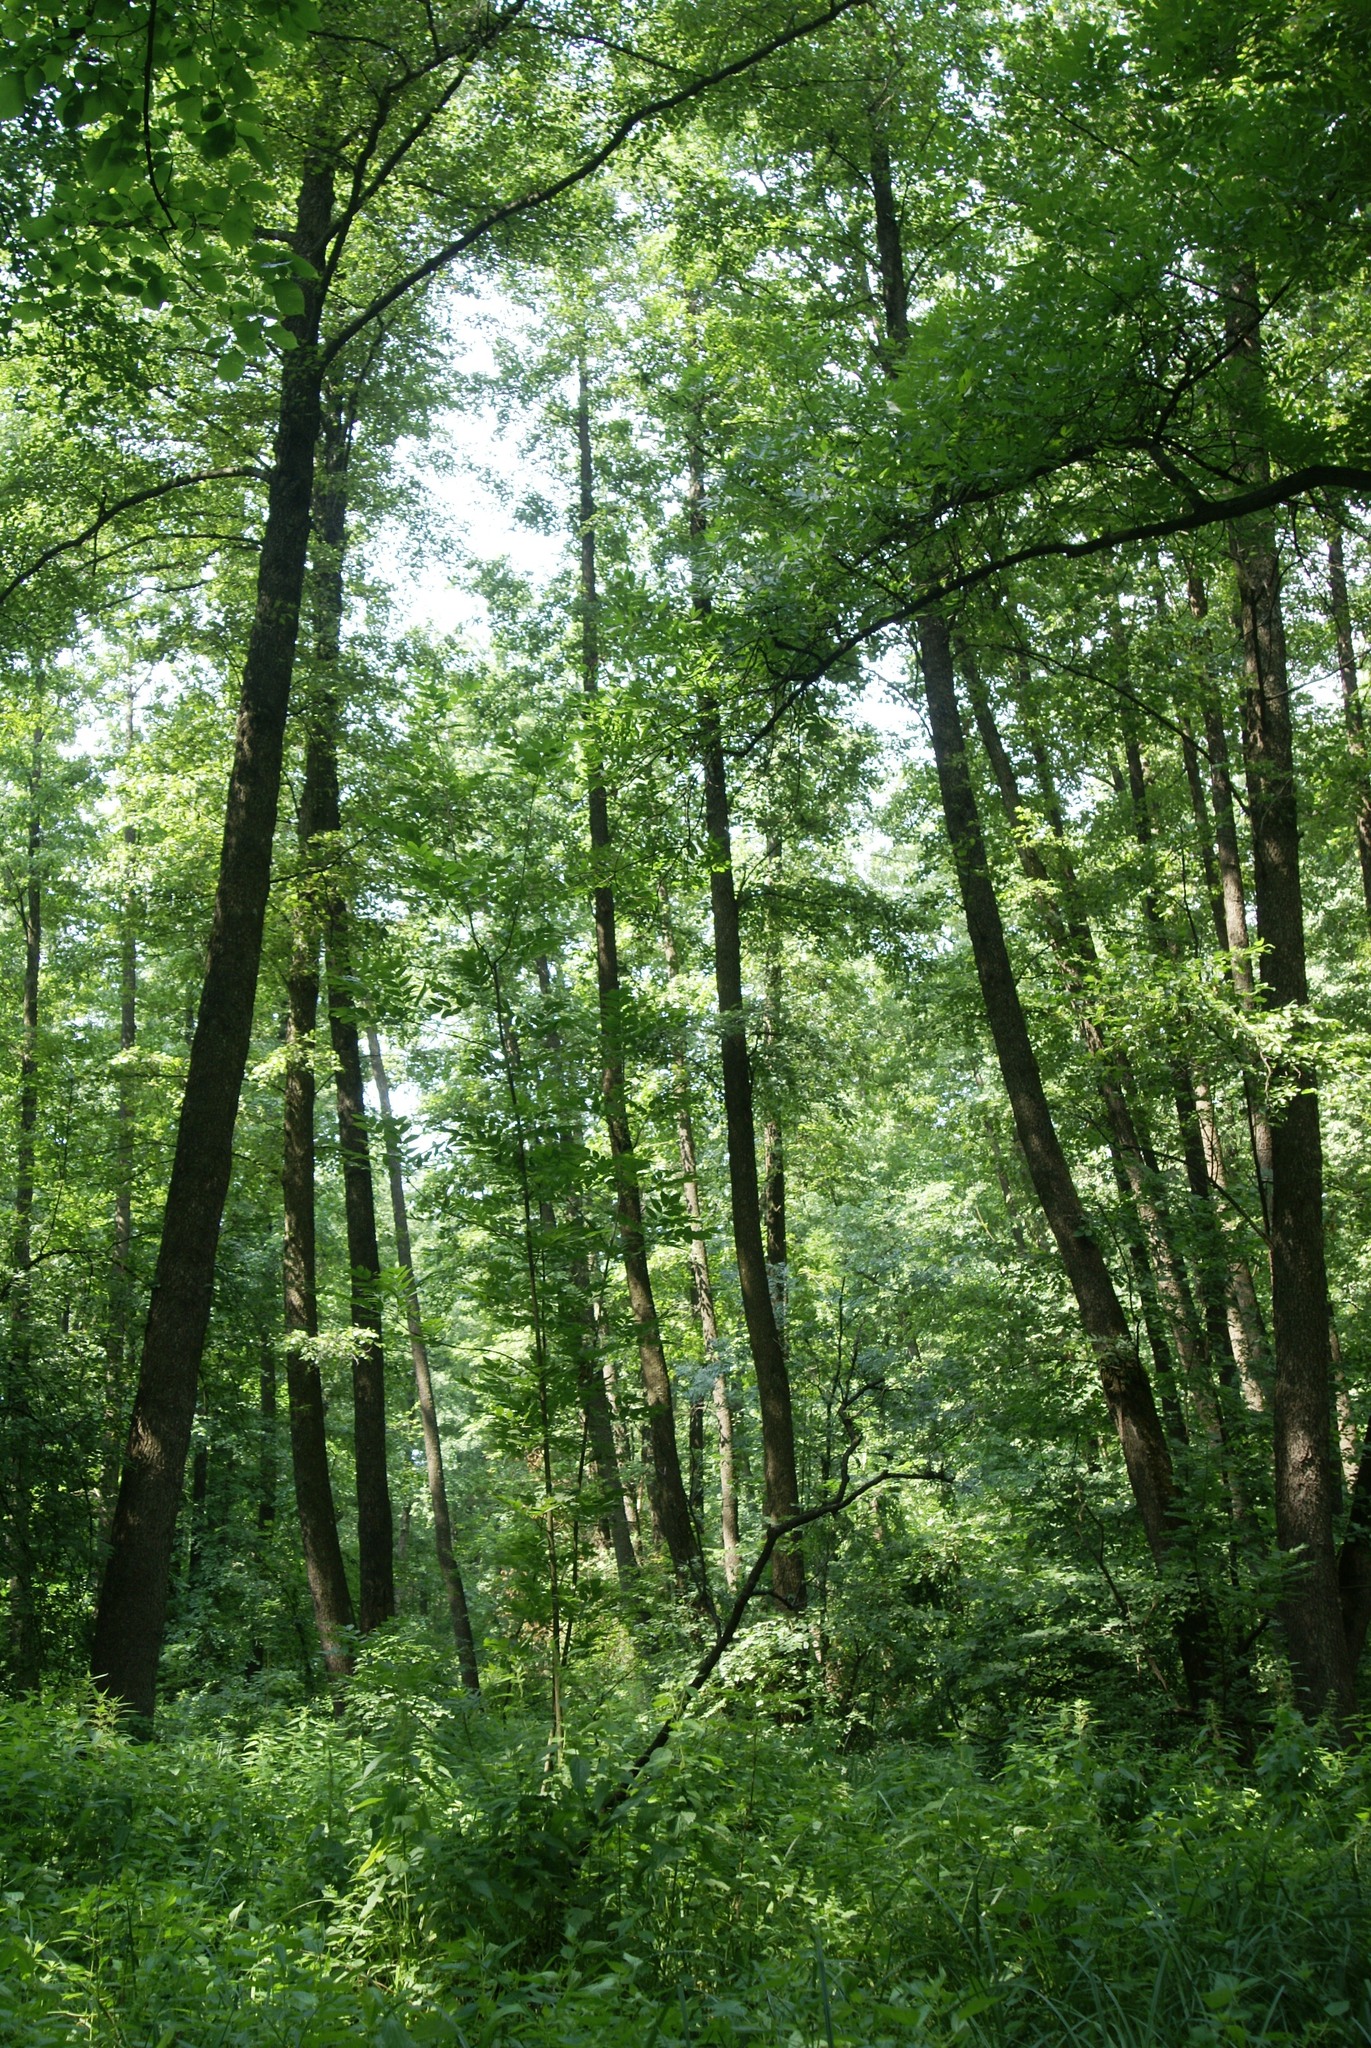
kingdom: Plantae
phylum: Tracheophyta
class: Magnoliopsida
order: Fagales
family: Betulaceae
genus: Alnus
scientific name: Alnus glutinosa
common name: Black alder
